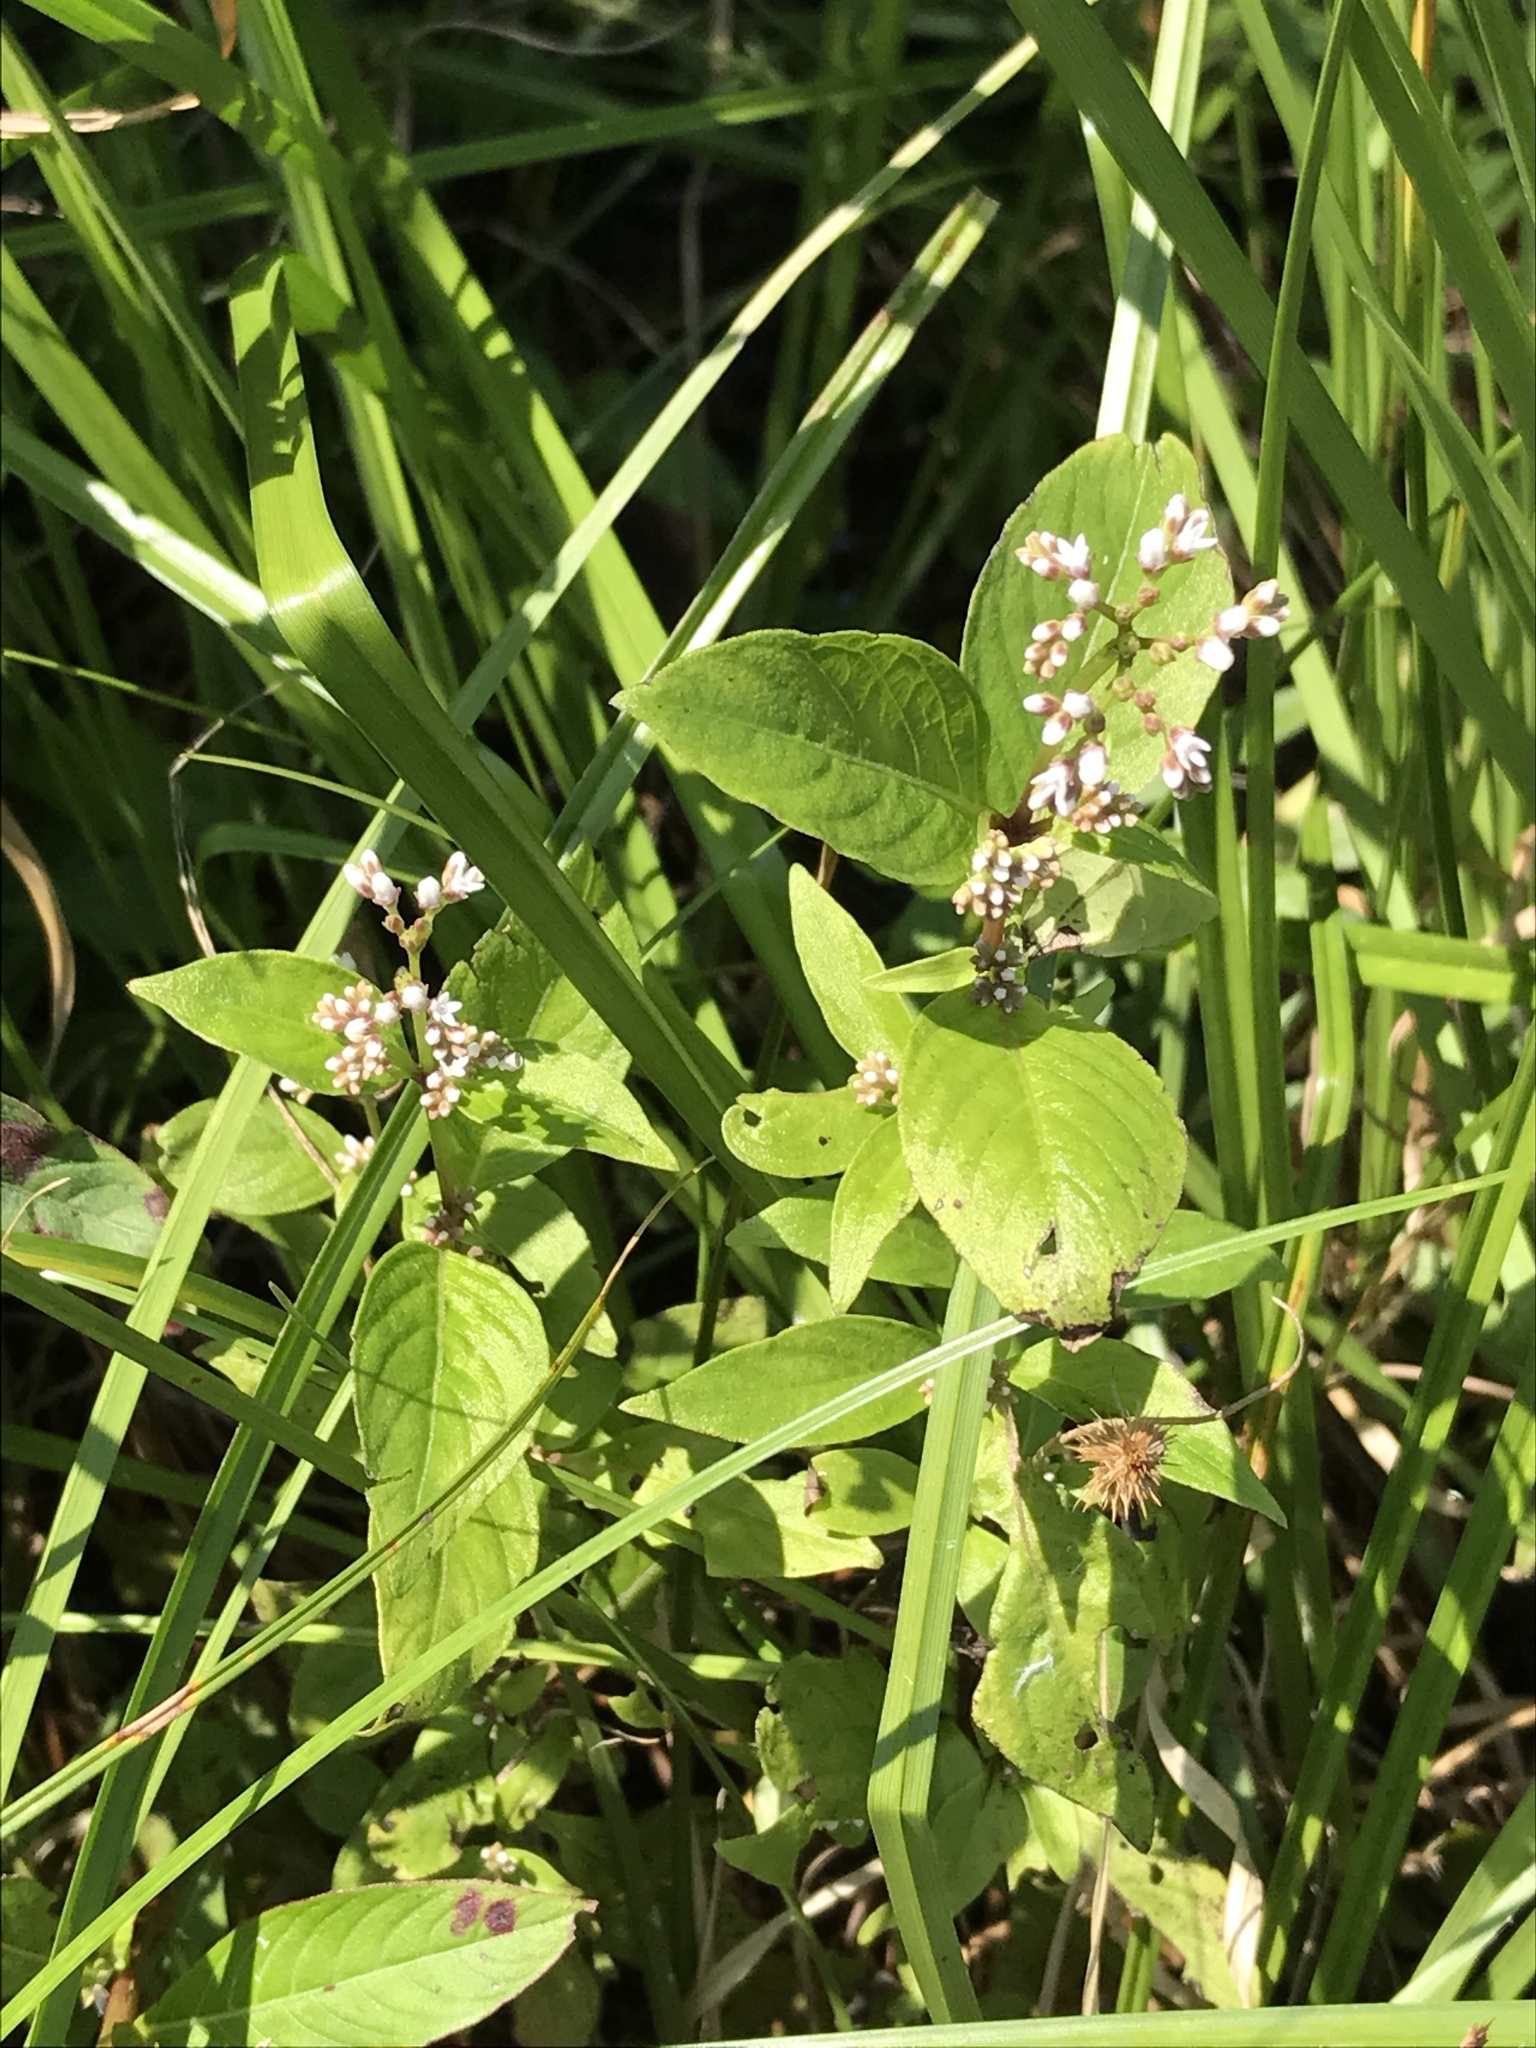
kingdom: Plantae
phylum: Tracheophyta
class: Magnoliopsida
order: Gentianales
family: Loganiaceae
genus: Mitreola
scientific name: Mitreola petiolata
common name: Lax hornpod
